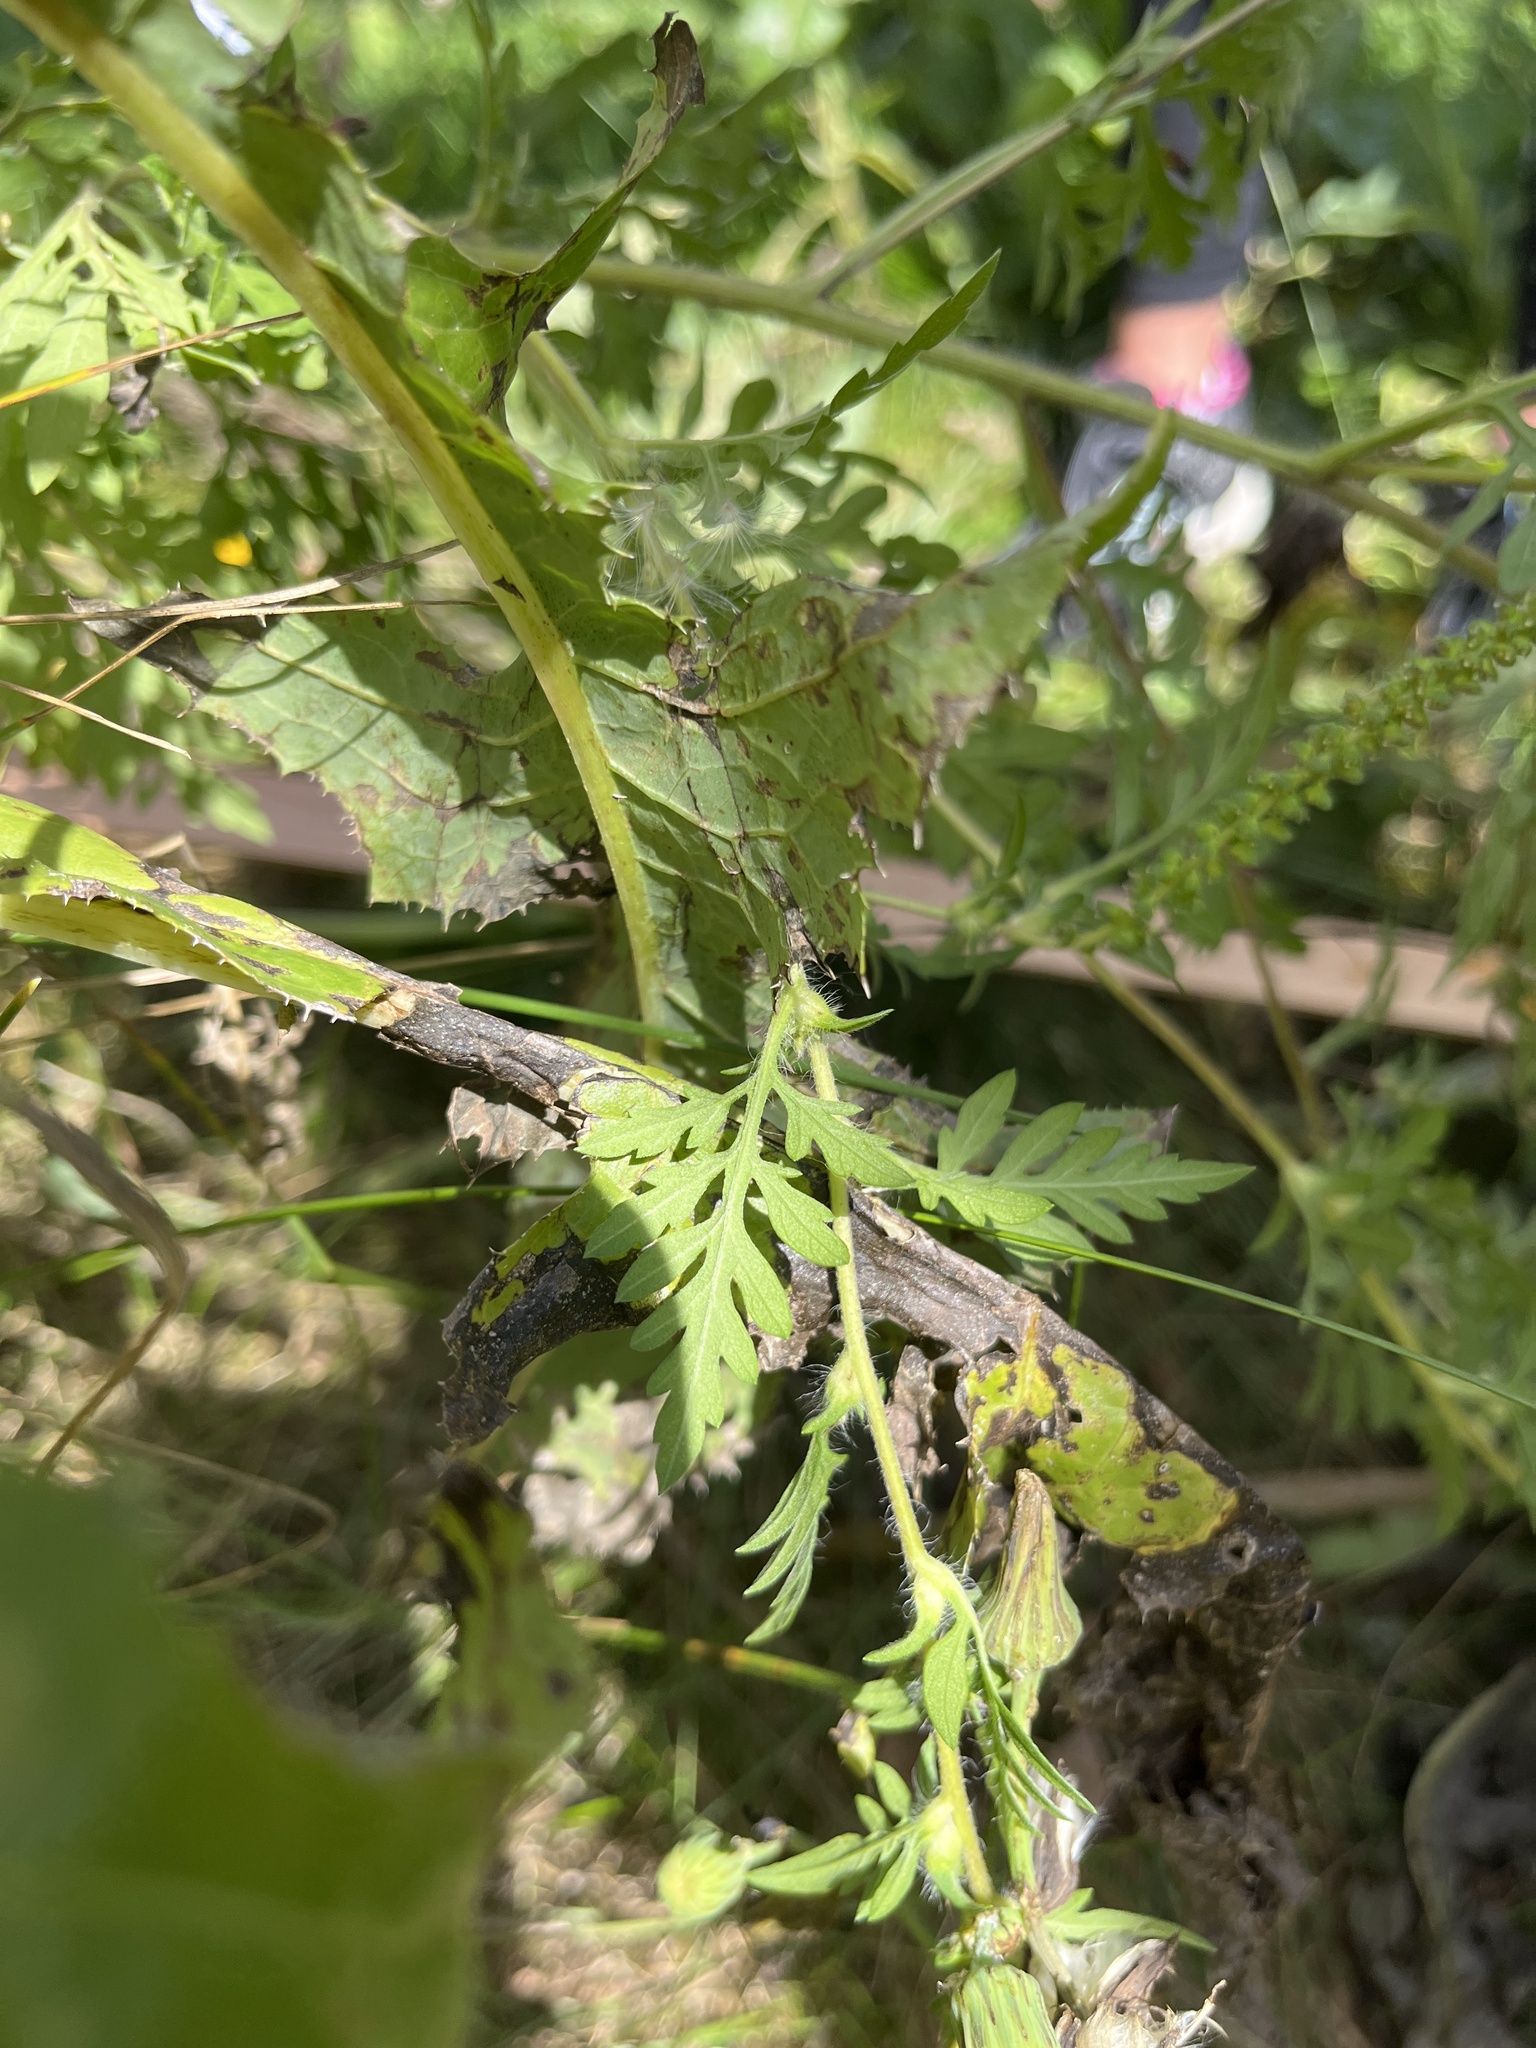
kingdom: Plantae
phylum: Tracheophyta
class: Magnoliopsida
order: Asterales
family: Asteraceae
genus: Ambrosia
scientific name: Ambrosia artemisiifolia
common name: Annual ragweed
